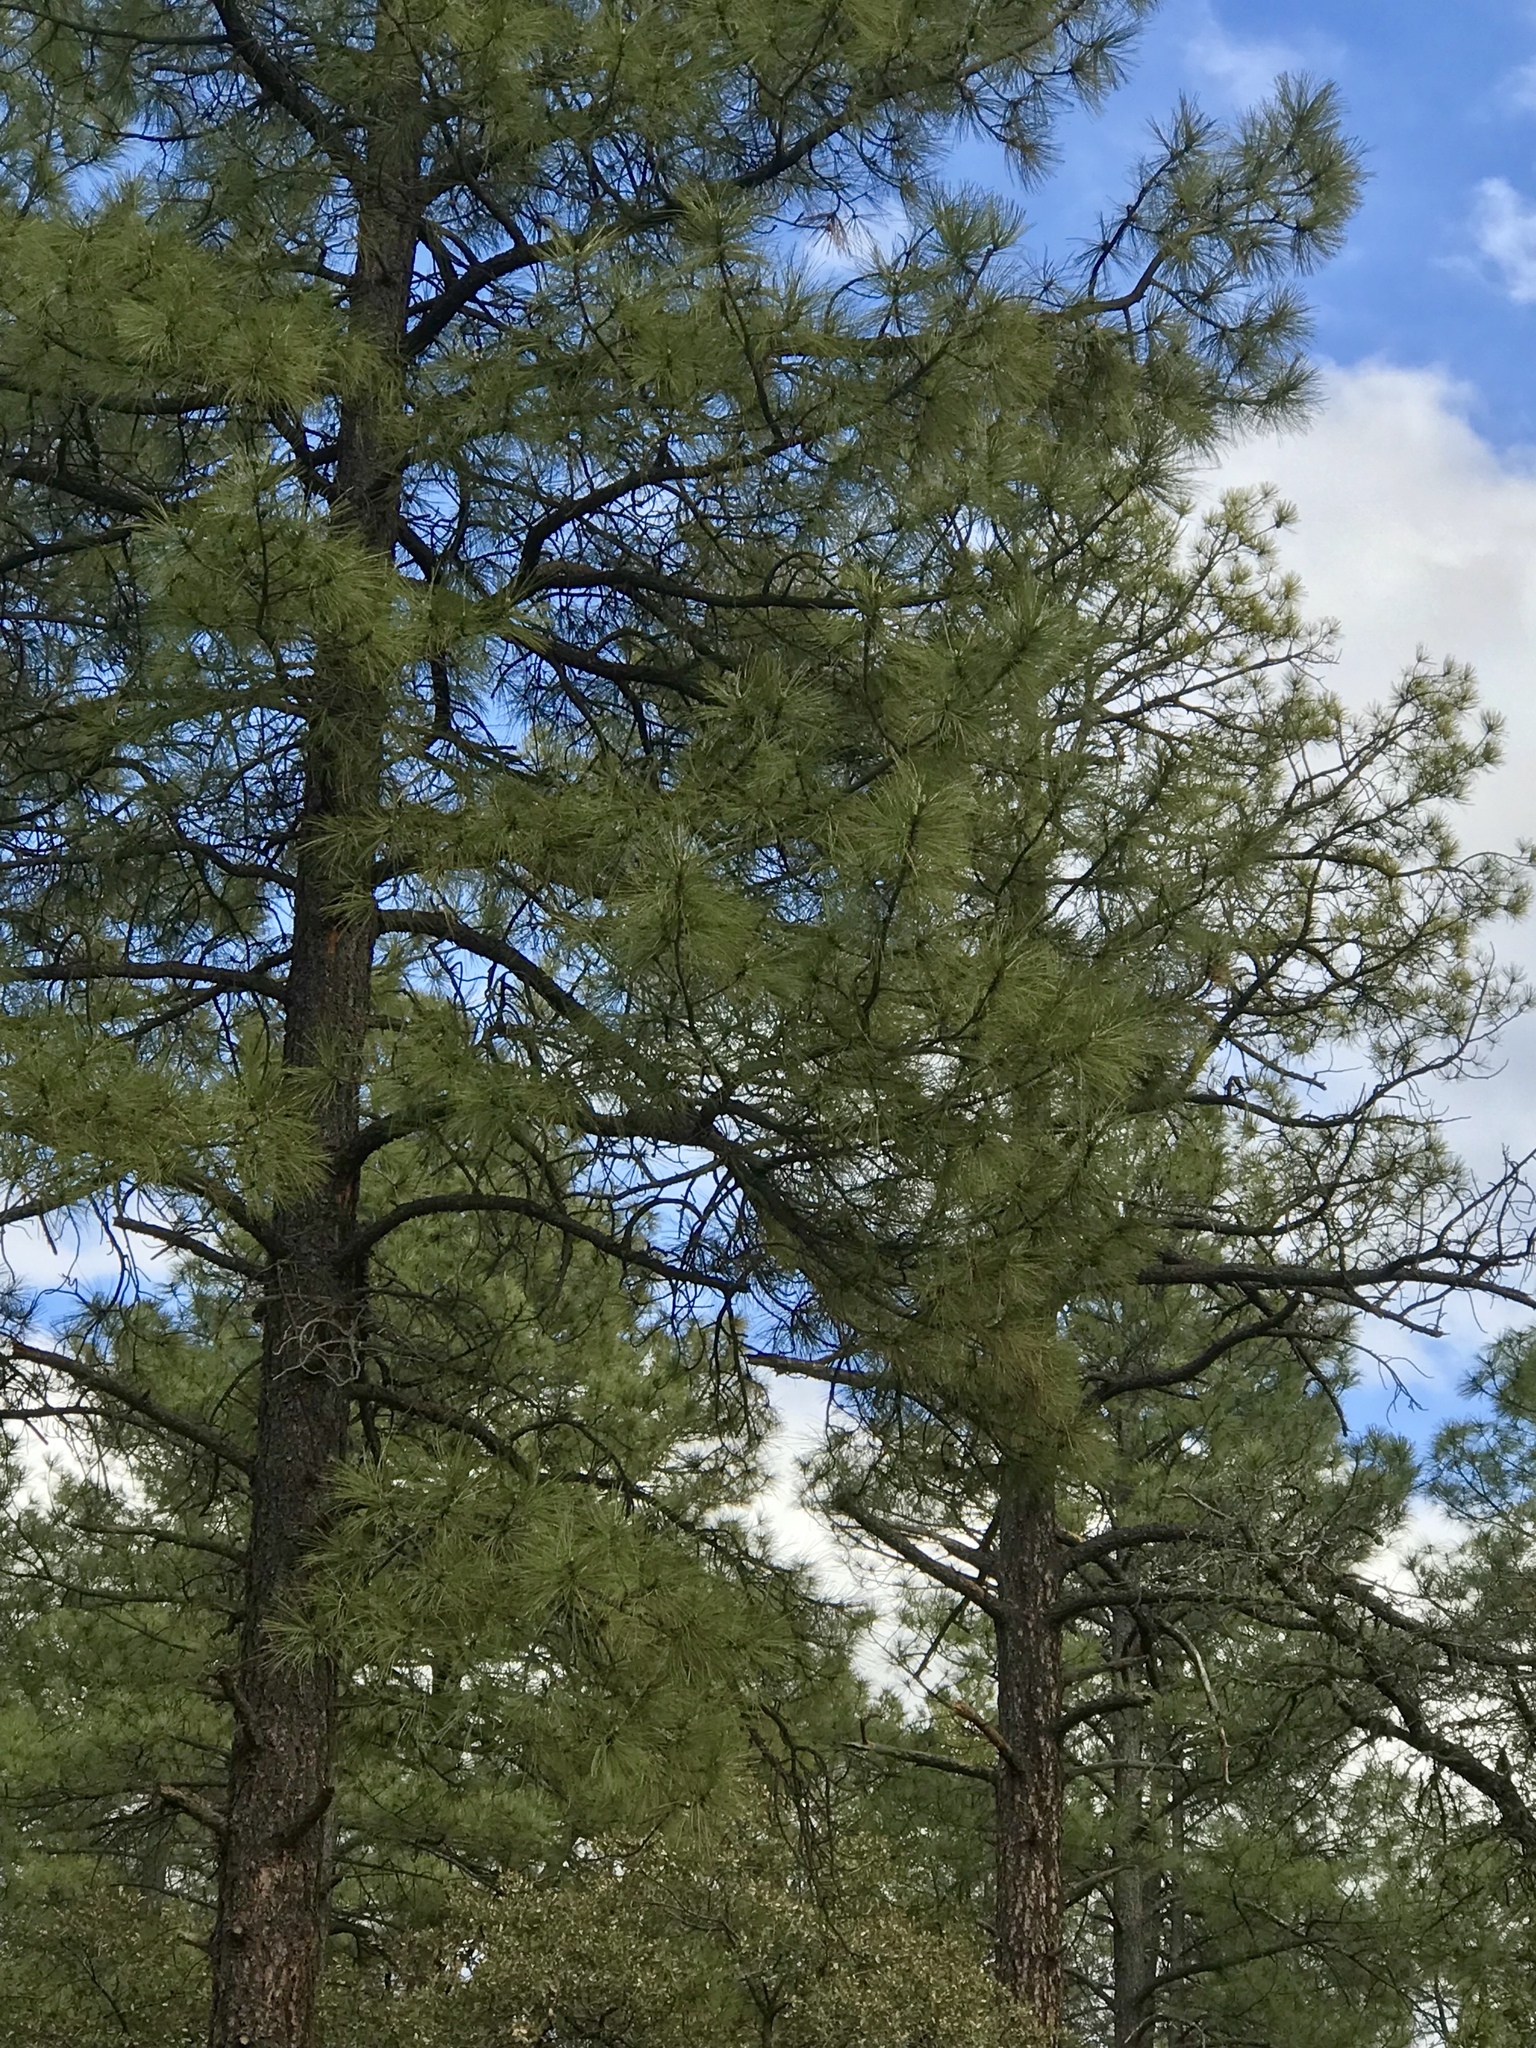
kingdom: Plantae
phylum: Tracheophyta
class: Pinopsida
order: Pinales
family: Pinaceae
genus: Pinus
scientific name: Pinus ponderosa
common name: Western yellow-pine
